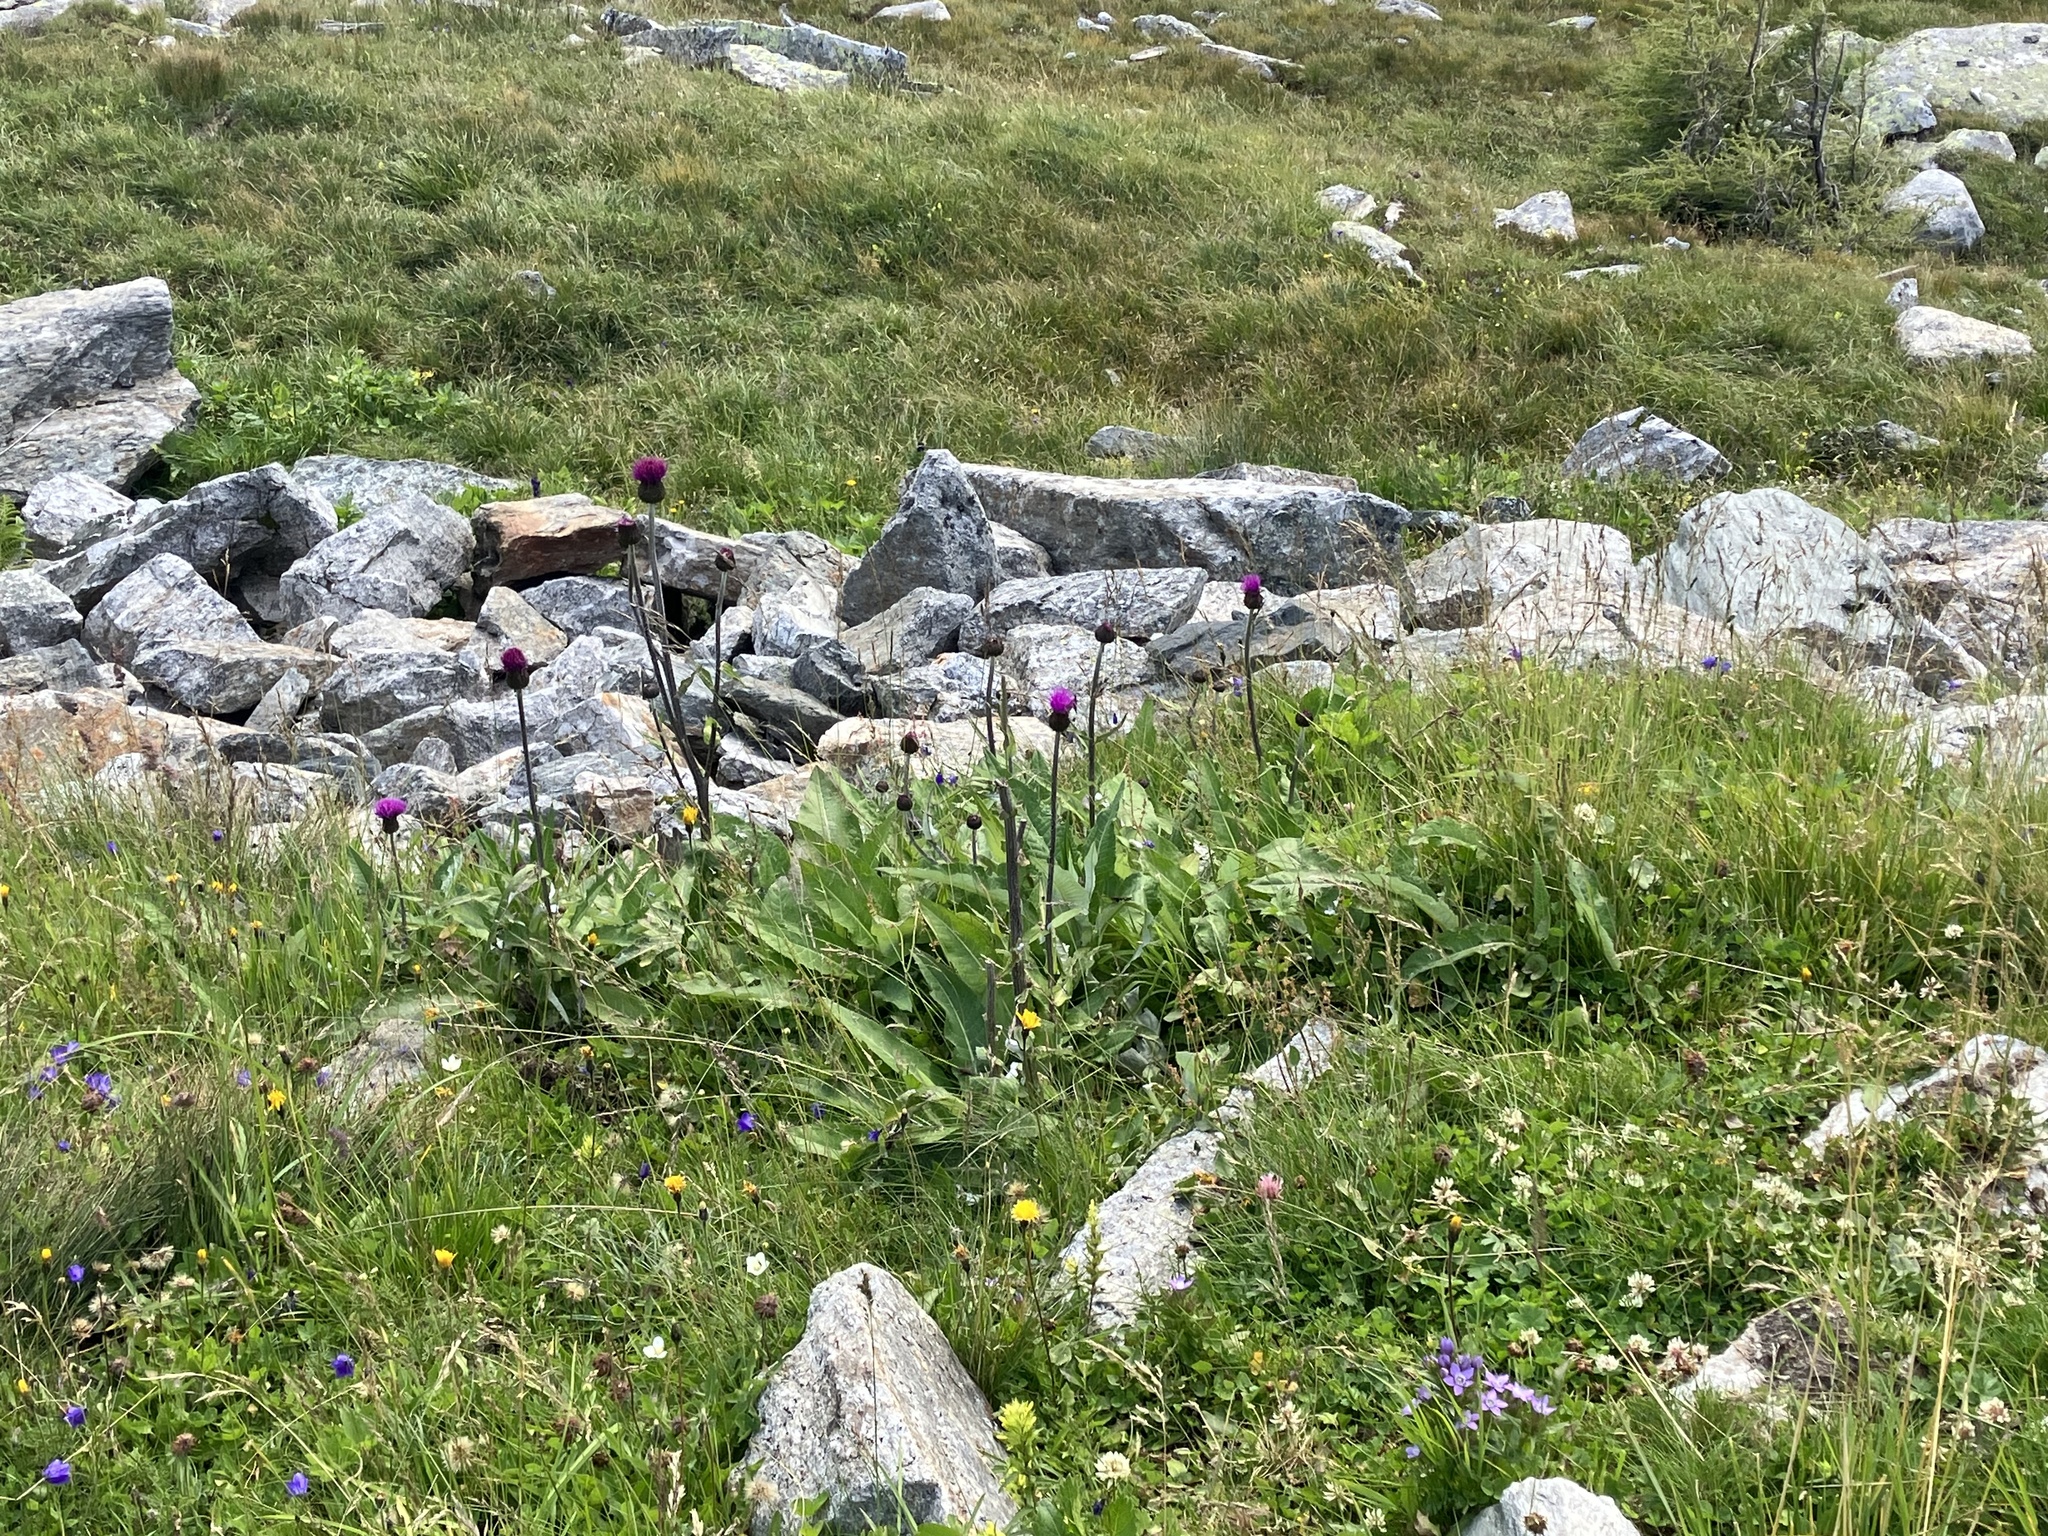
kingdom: Plantae
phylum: Tracheophyta
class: Magnoliopsida
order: Asterales
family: Asteraceae
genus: Cirsium
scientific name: Cirsium heterophyllum
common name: Melancholy thistle
